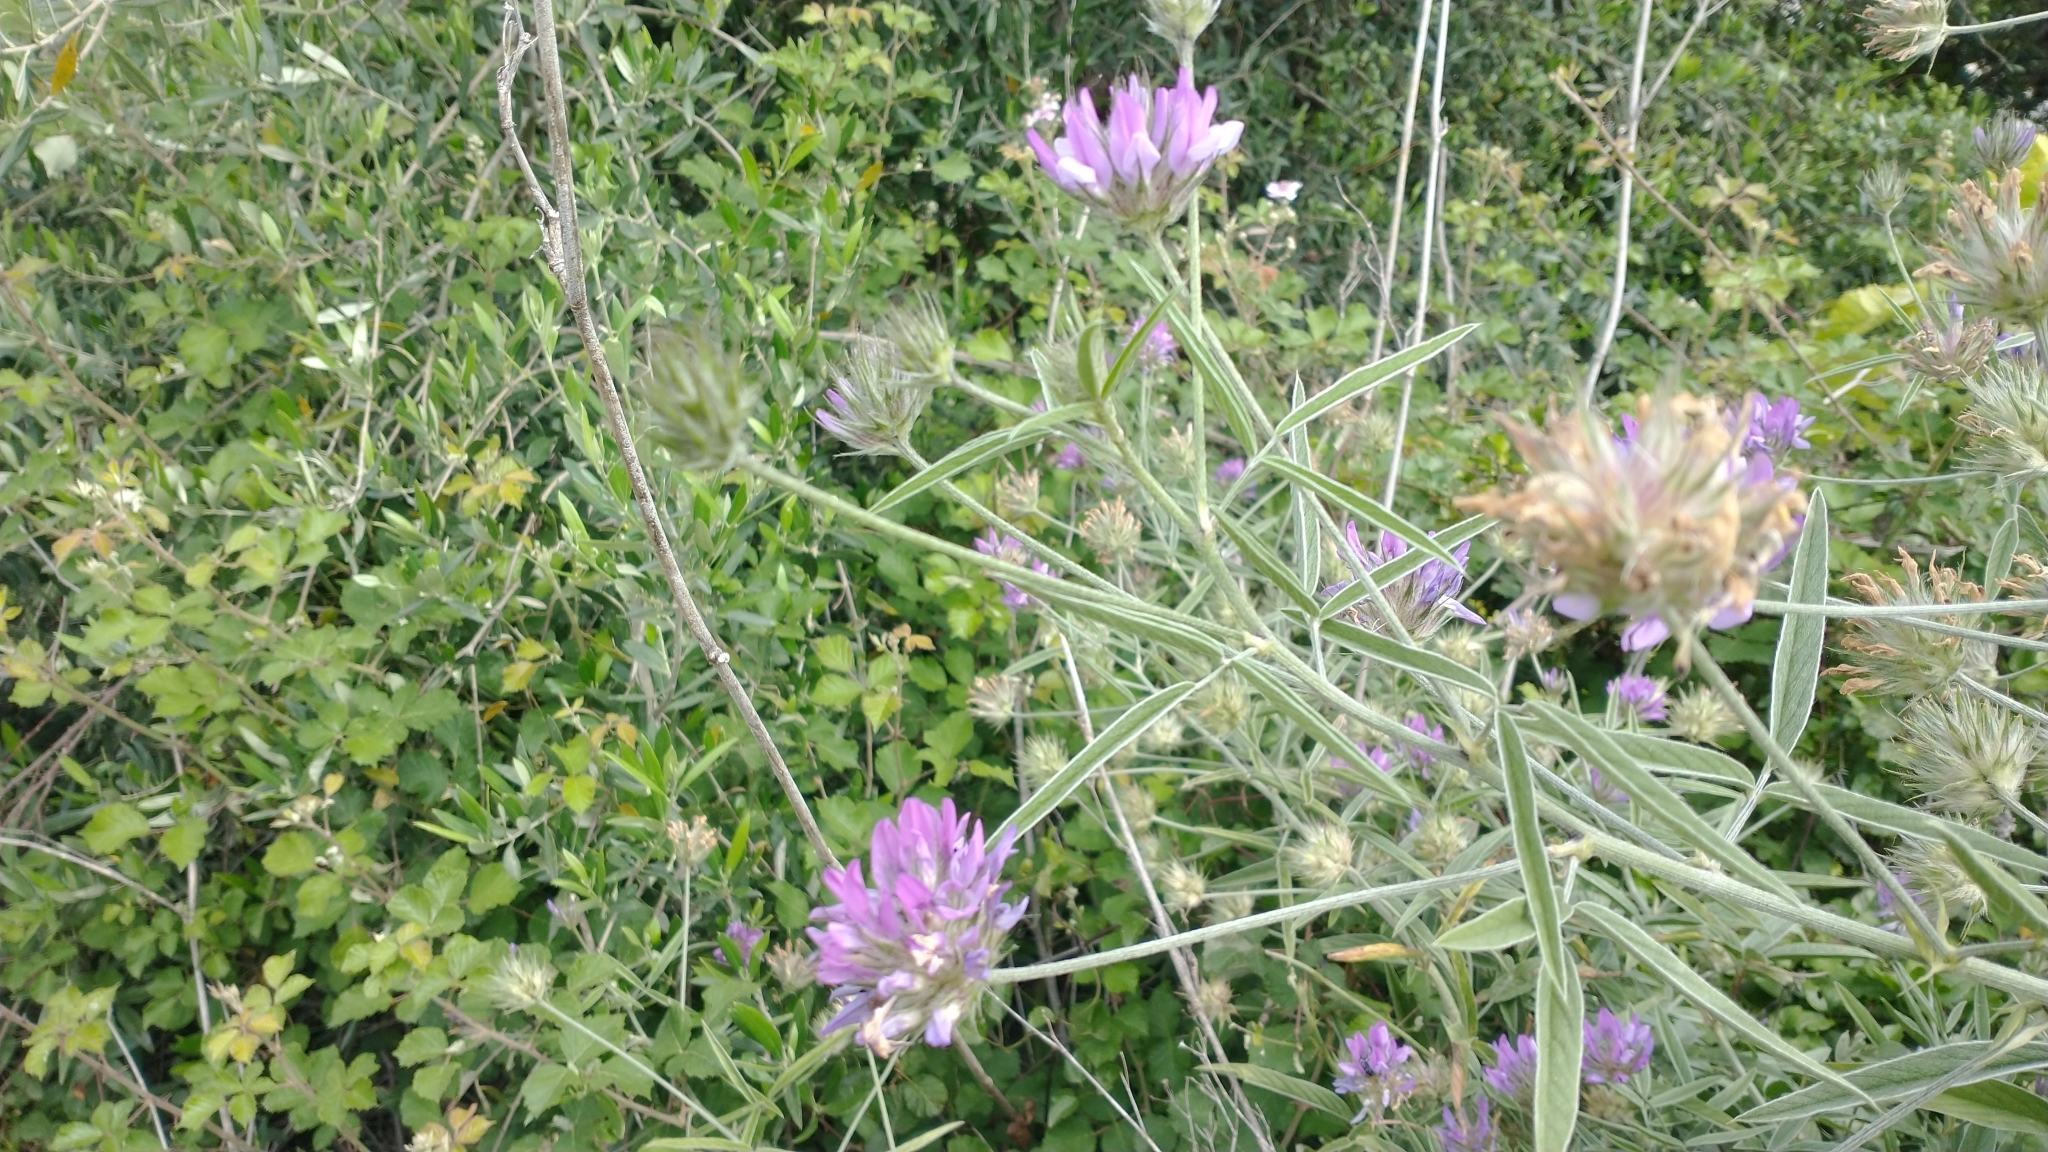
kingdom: Plantae
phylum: Tracheophyta
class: Magnoliopsida
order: Fabales
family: Fabaceae
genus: Bituminaria
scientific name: Bituminaria bituminosa
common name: Arabian pea
